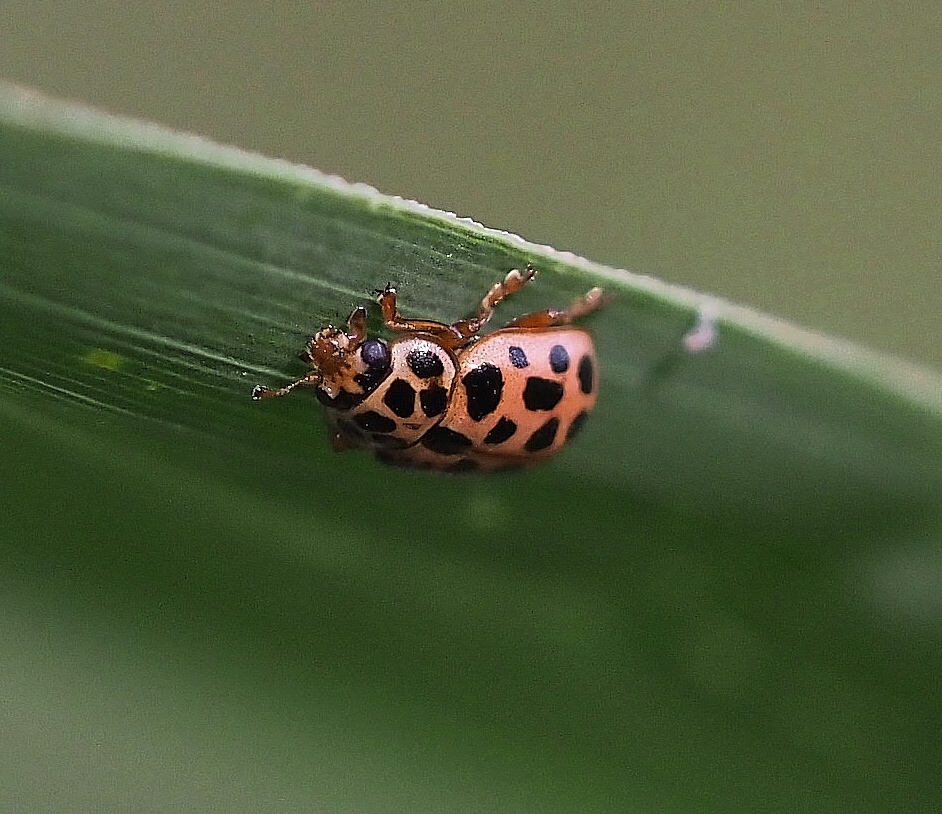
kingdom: Animalia
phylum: Arthropoda
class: Insecta
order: Coleoptera
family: Coccinellidae
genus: Anisosticta
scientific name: Anisosticta novemdecimpunctata
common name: Water ladybird
